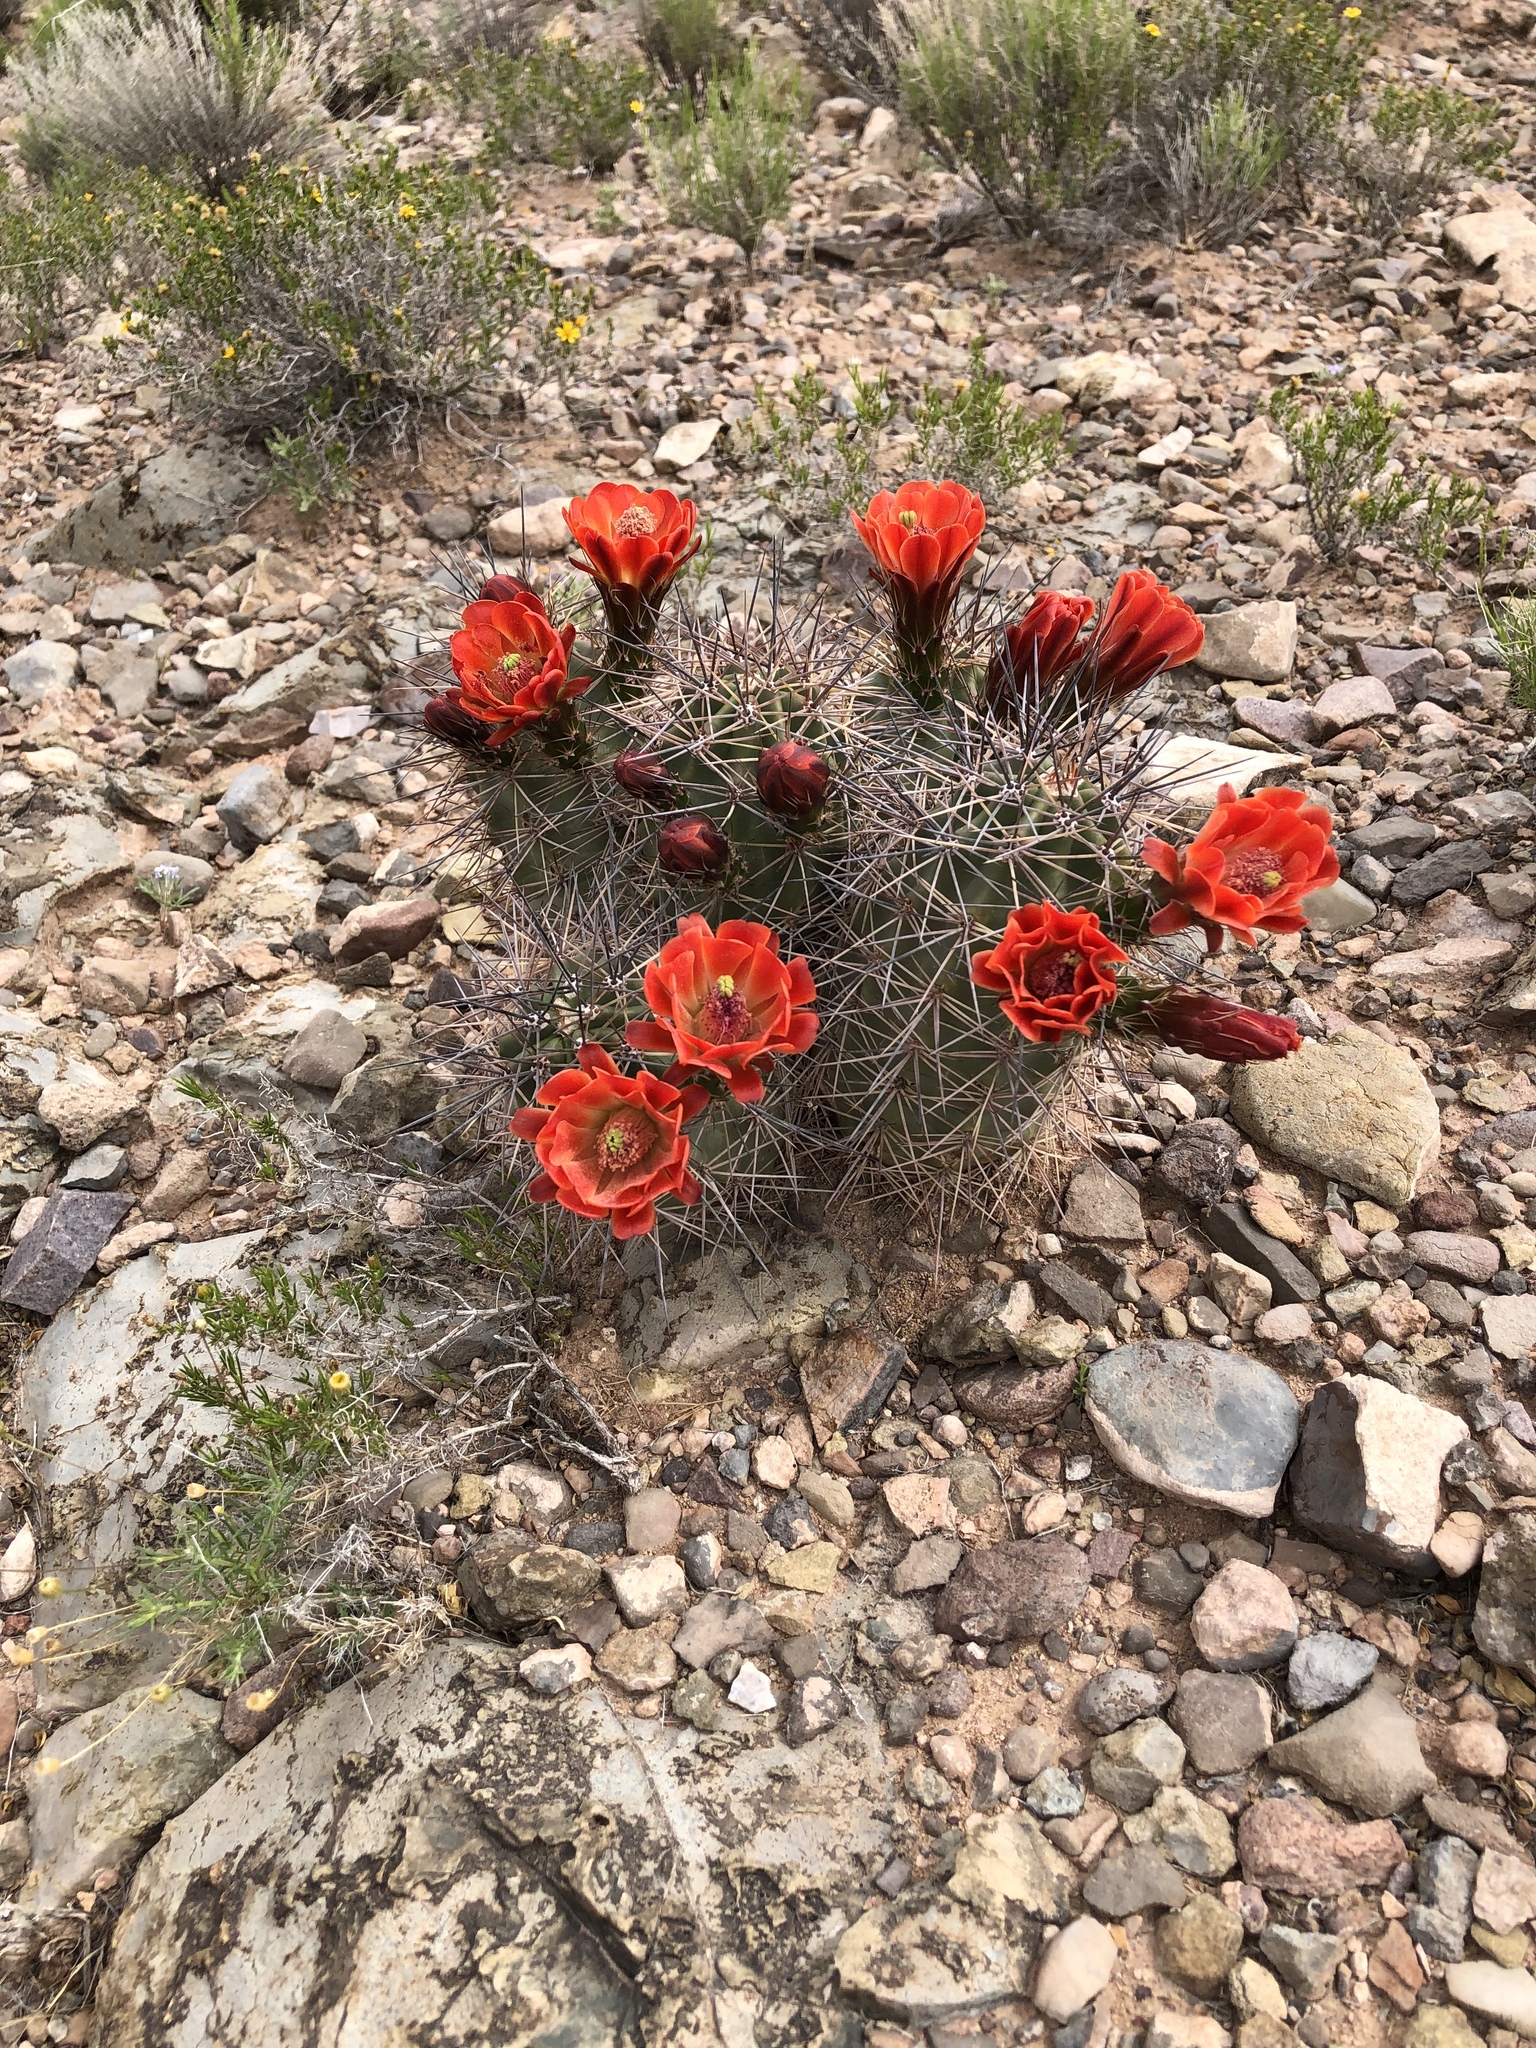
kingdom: Plantae
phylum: Tracheophyta
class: Magnoliopsida
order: Caryophyllales
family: Cactaceae
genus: Echinocereus
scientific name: Echinocereus coccineus
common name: Scarlet hedgehog cactus
